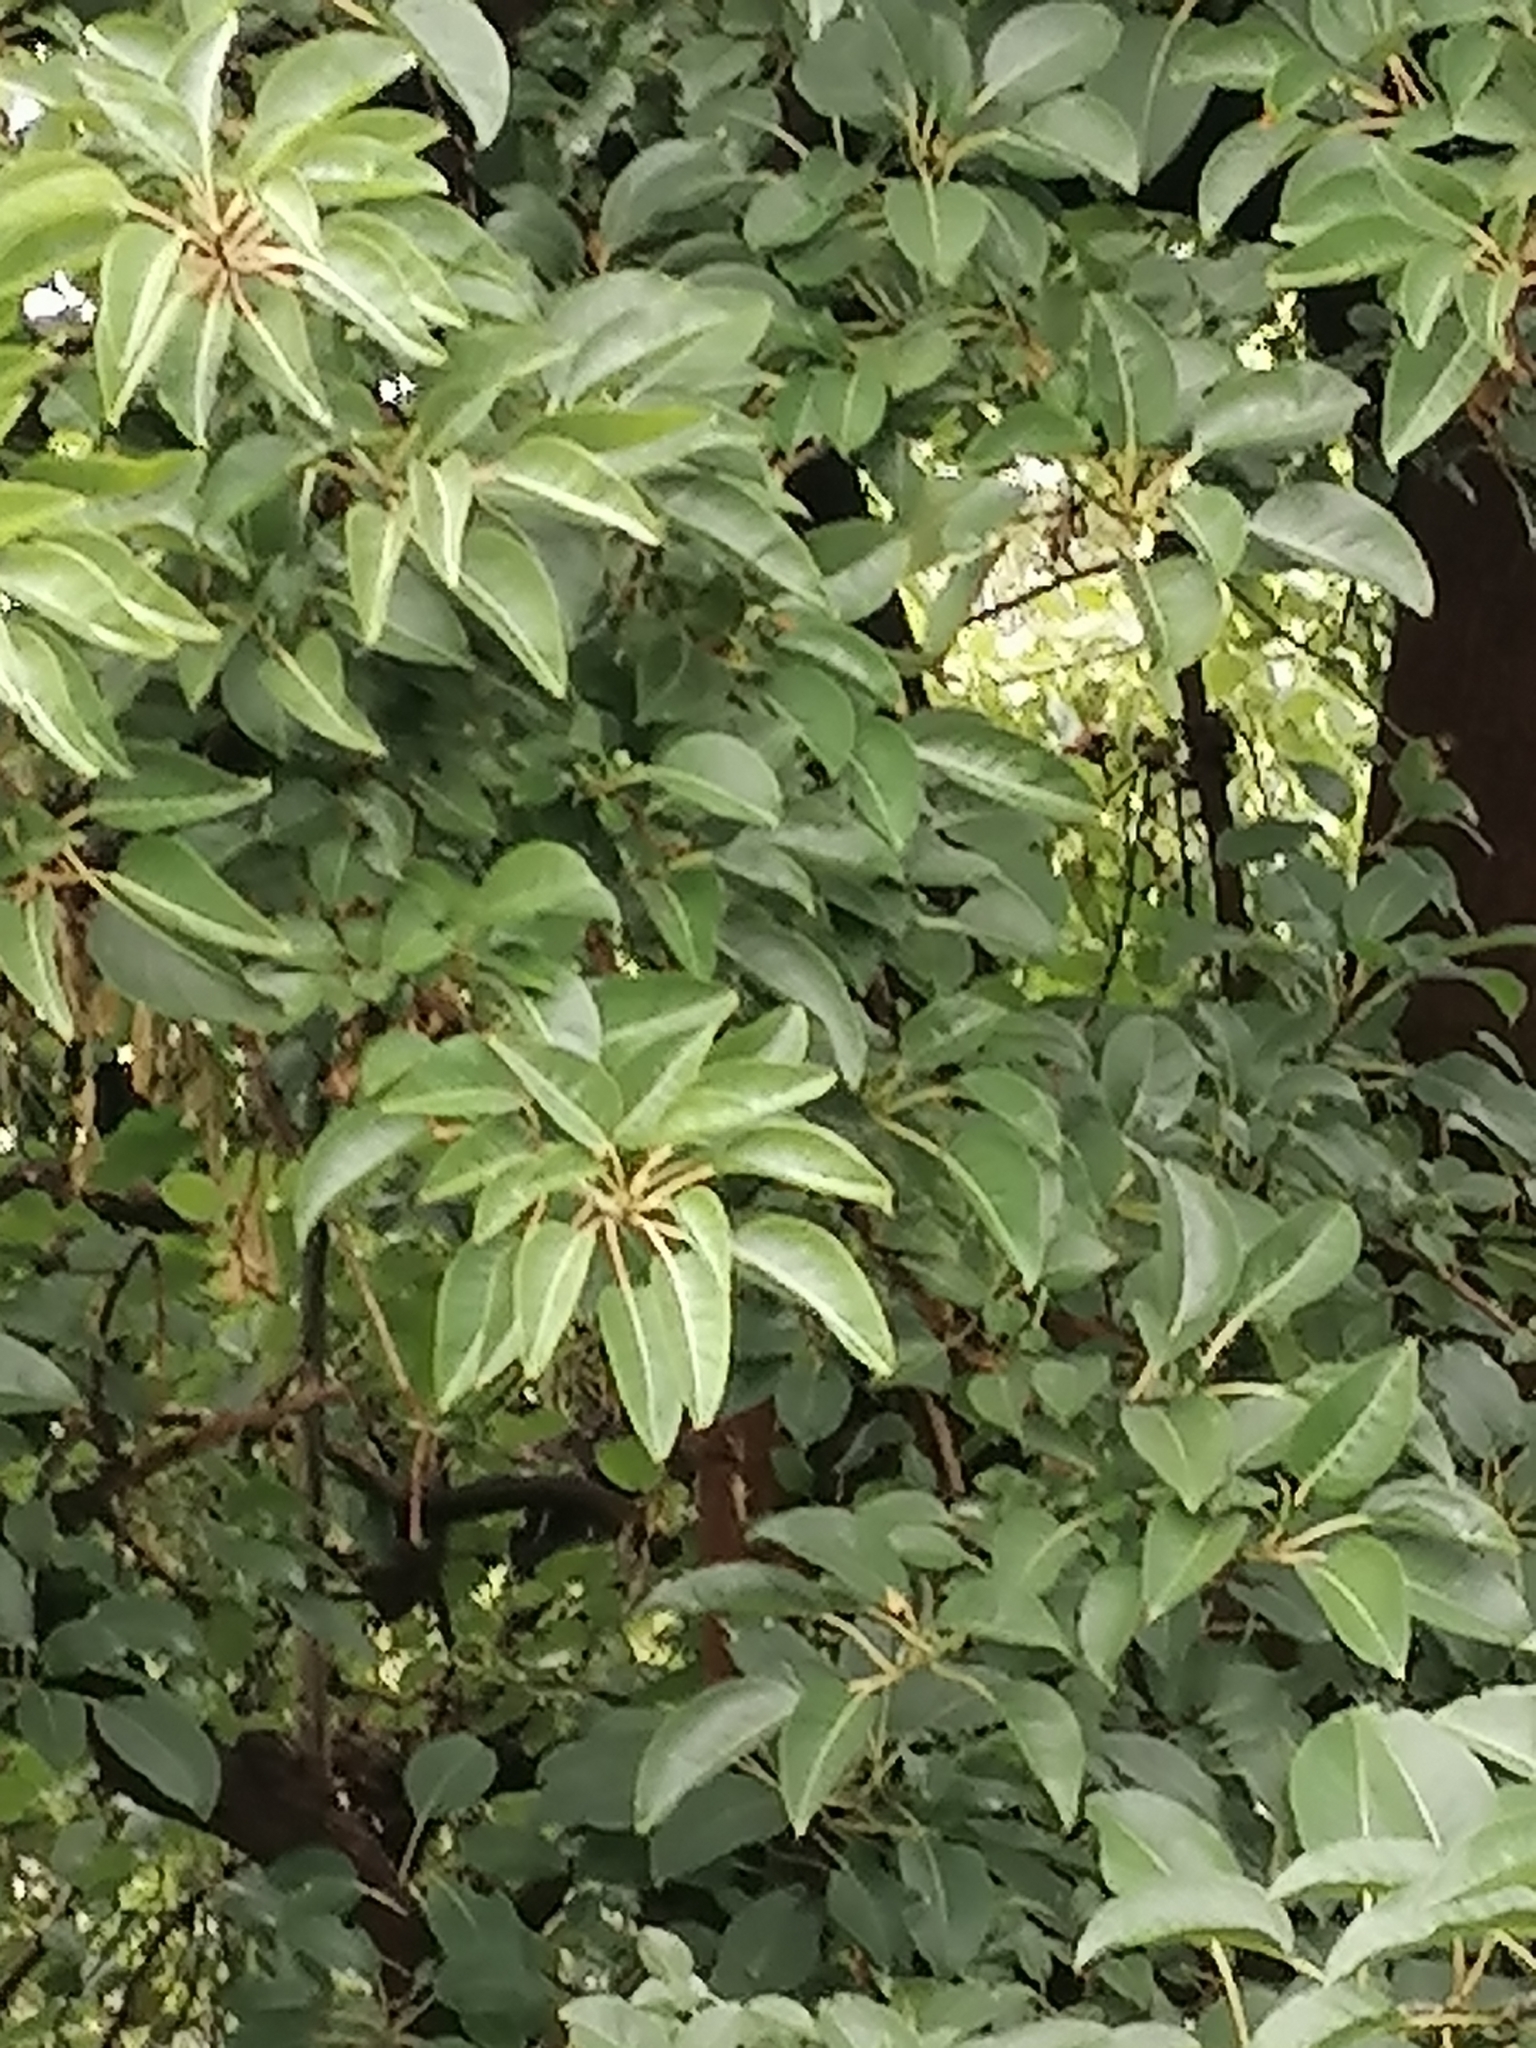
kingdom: Plantae
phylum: Tracheophyta
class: Magnoliopsida
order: Caryophyllales
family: Phytolaccaceae
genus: Phytolacca
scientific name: Phytolacca dioica
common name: Pokeweed
